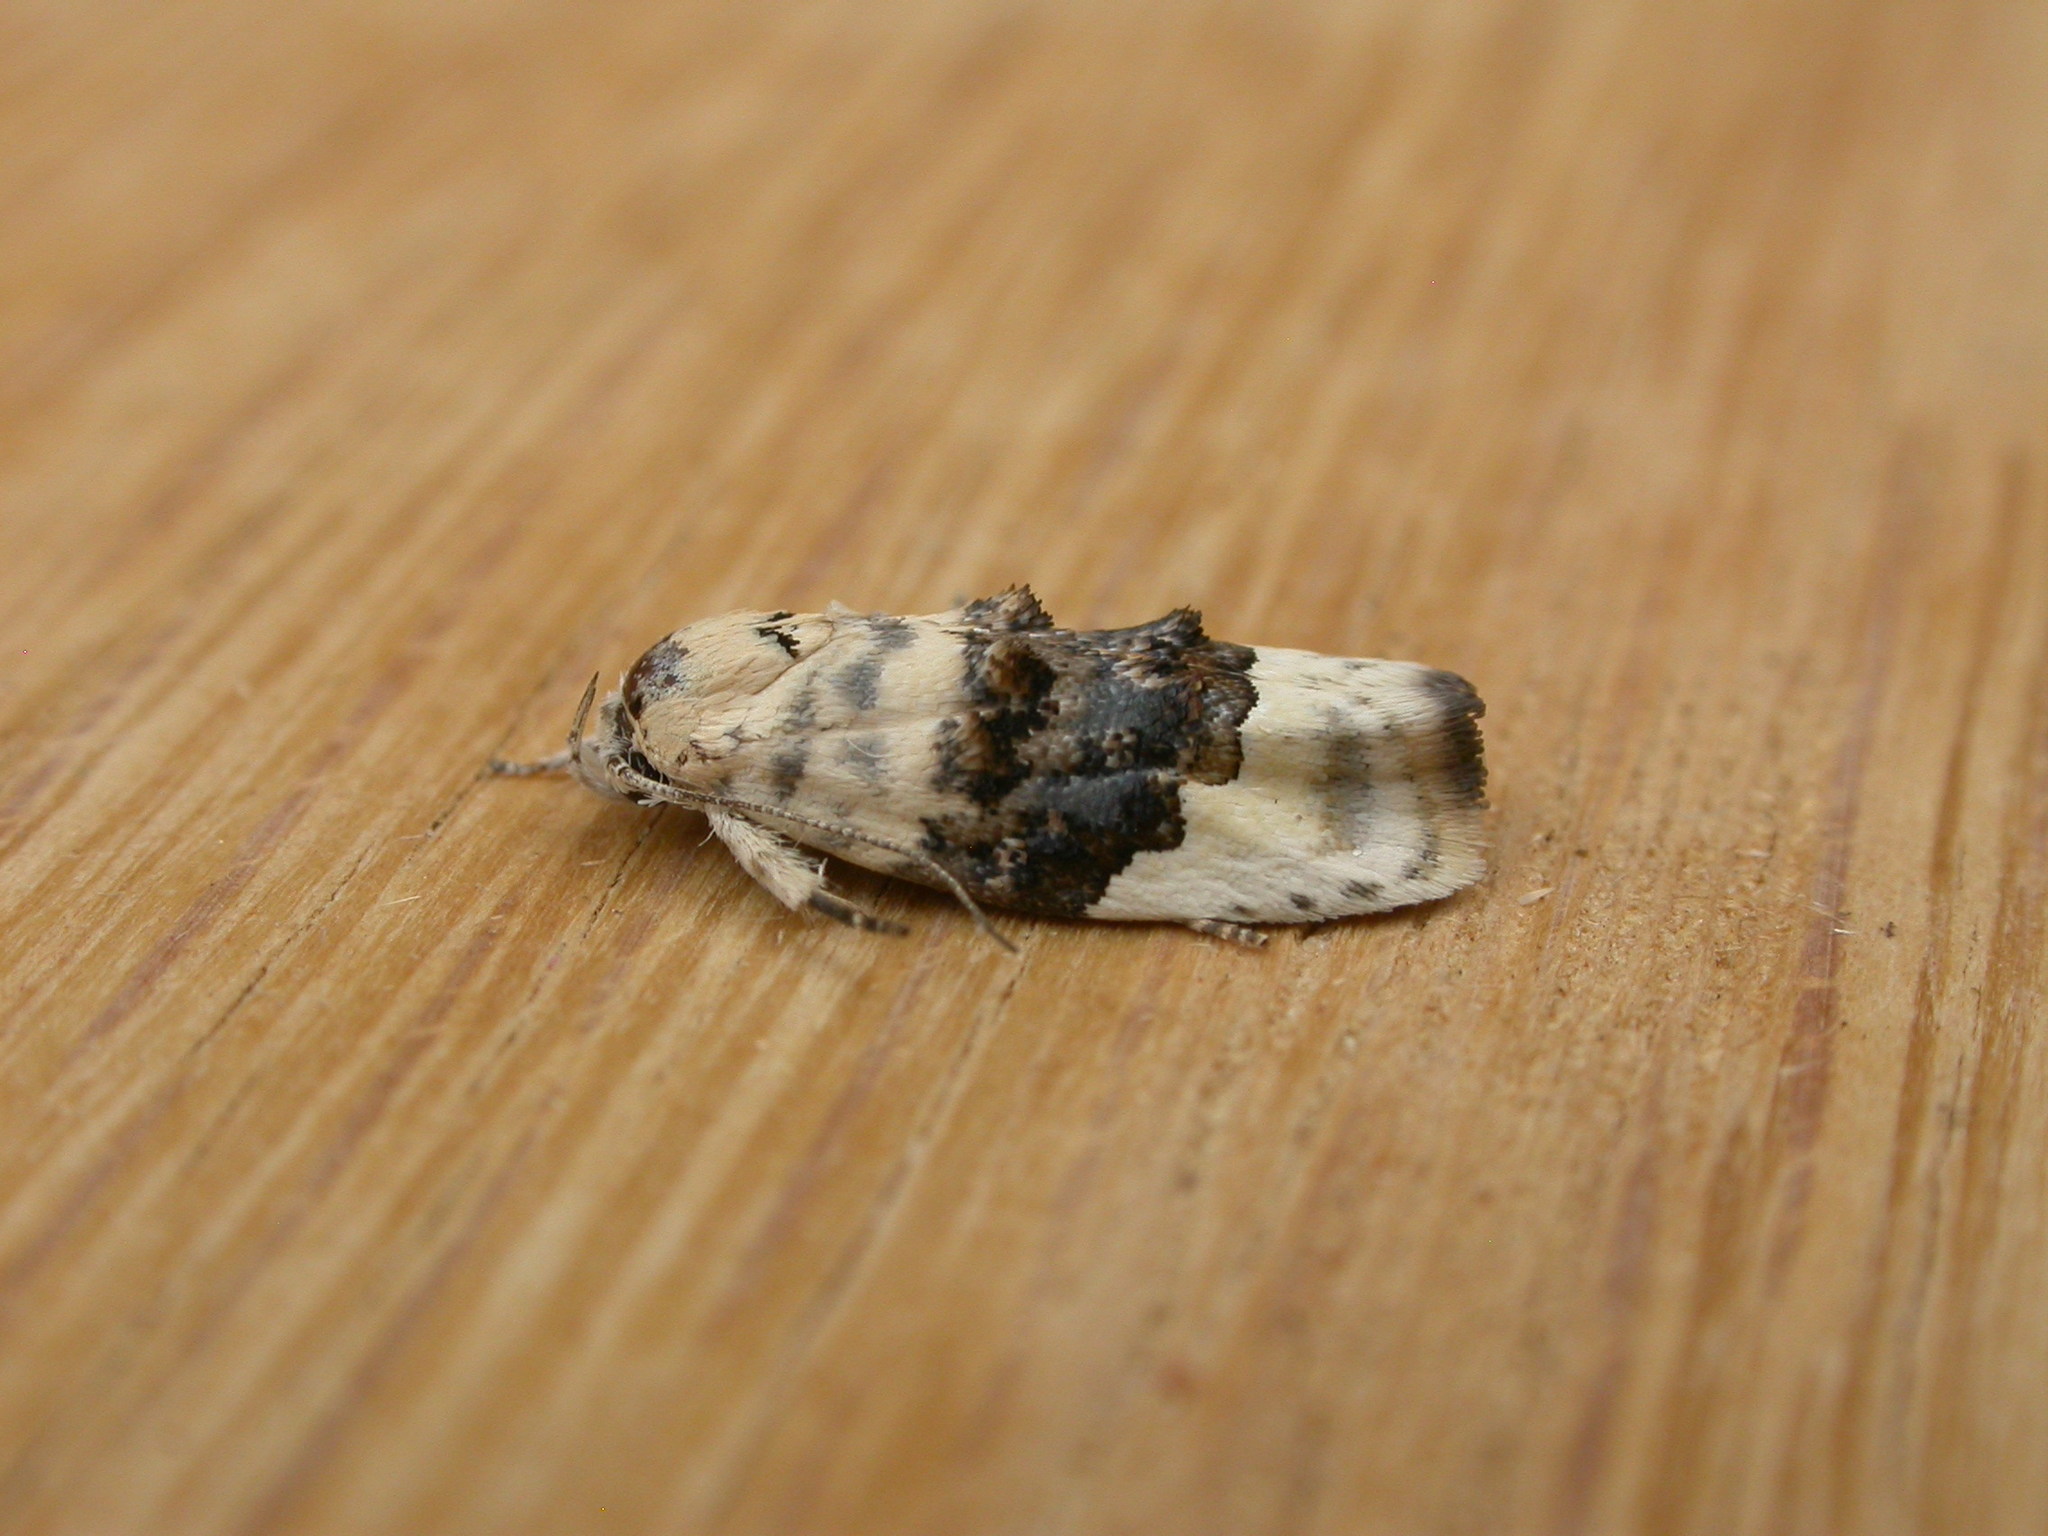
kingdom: Animalia
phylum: Arthropoda
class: Insecta
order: Lepidoptera
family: Oecophoridae
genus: Piloprepes
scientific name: Piloprepes antidoxa
